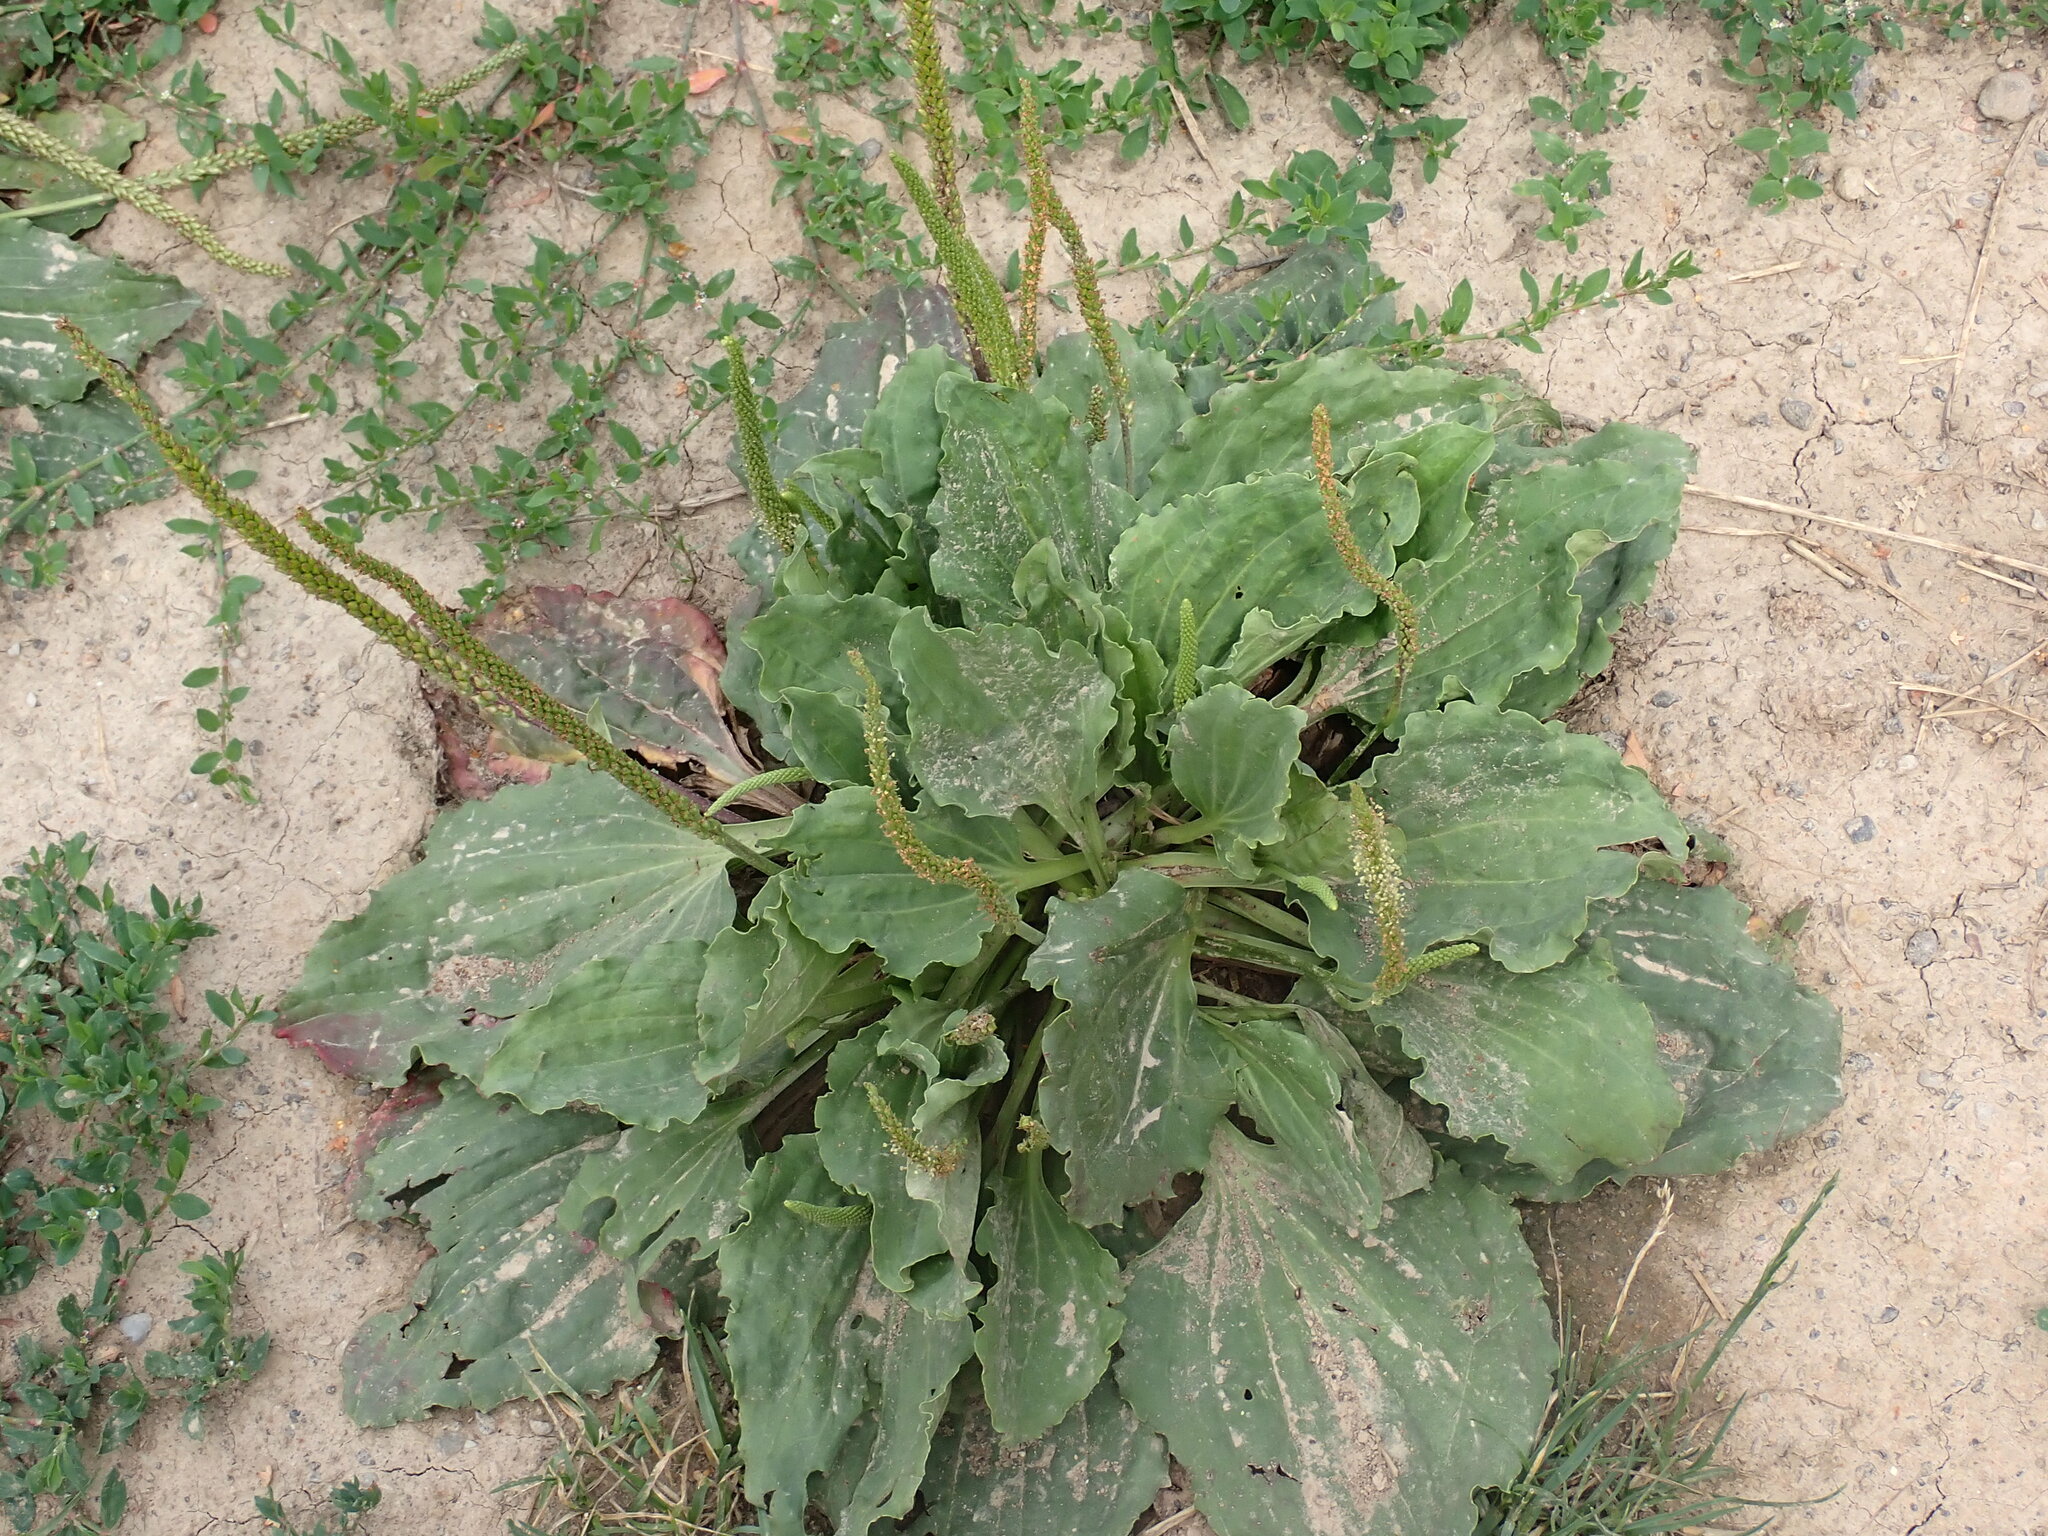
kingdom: Plantae
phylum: Tracheophyta
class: Magnoliopsida
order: Lamiales
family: Plantaginaceae
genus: Plantago
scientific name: Plantago major
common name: Common plantain
